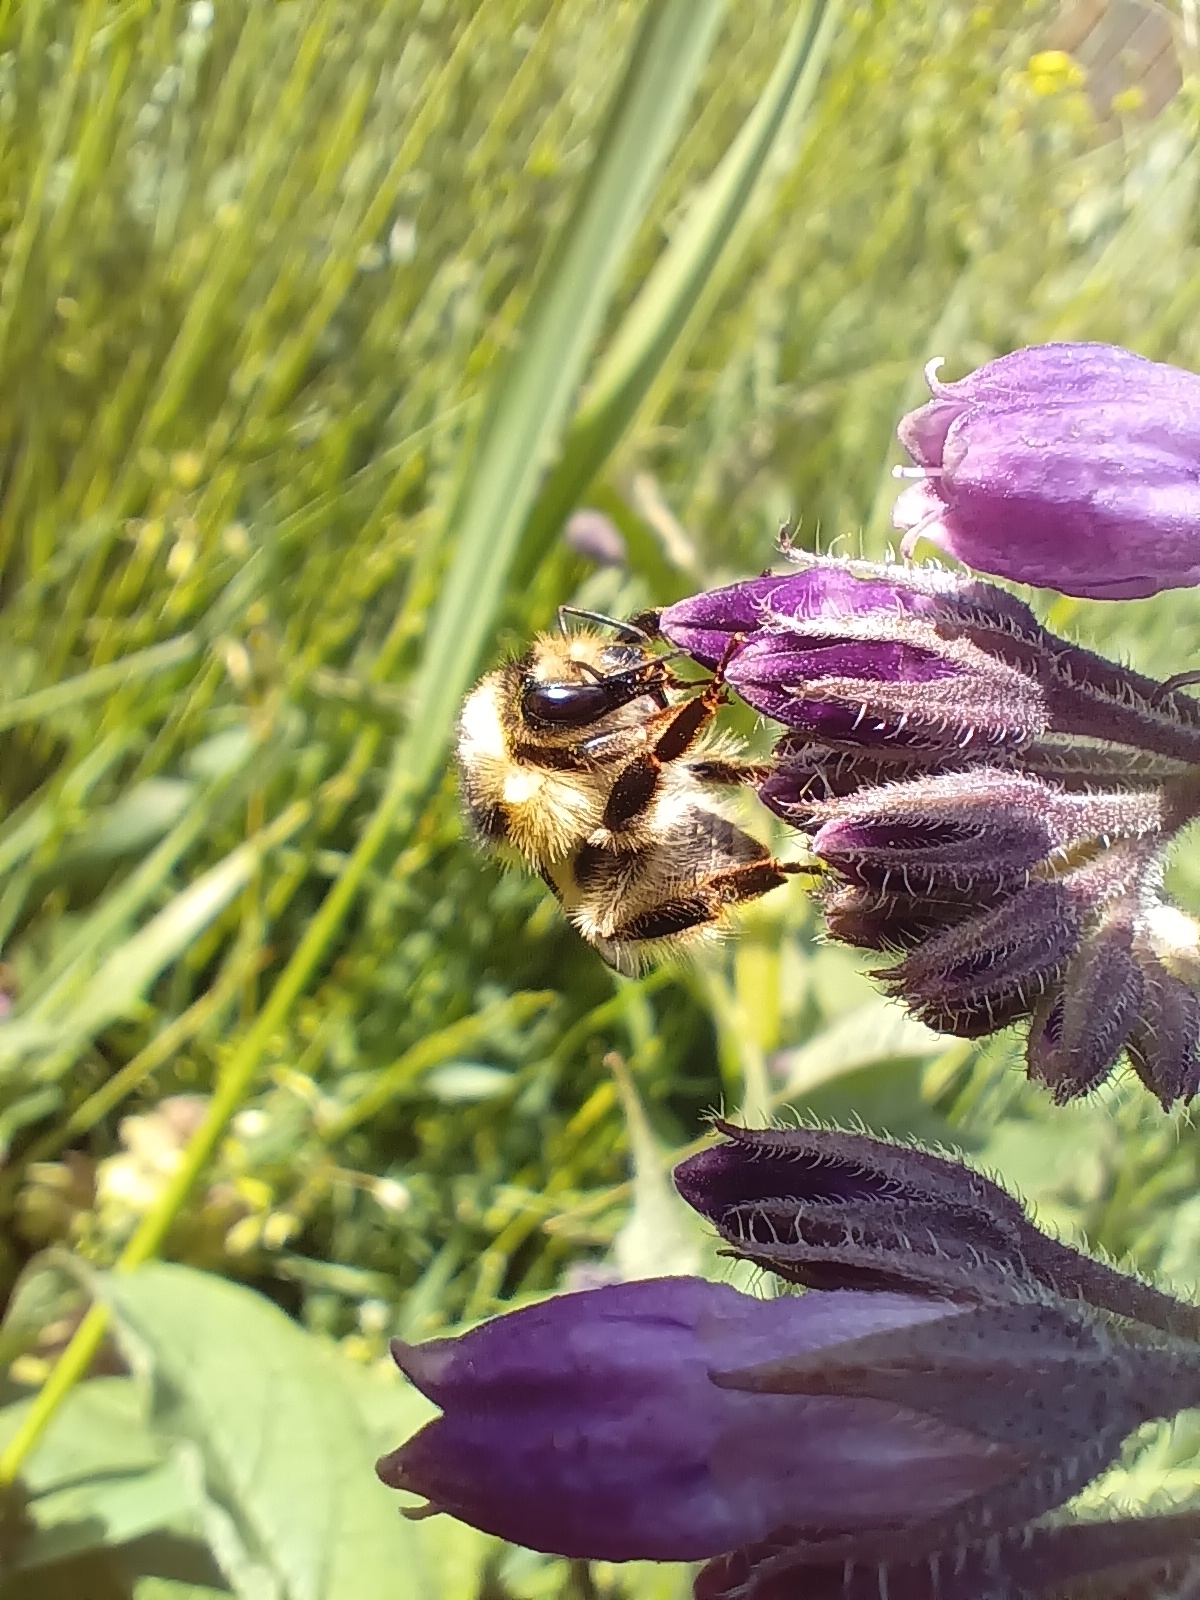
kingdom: Animalia
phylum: Arthropoda
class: Insecta
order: Hymenoptera
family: Apidae
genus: Bombus
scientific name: Bombus sylvarum
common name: Shrill carder bee
